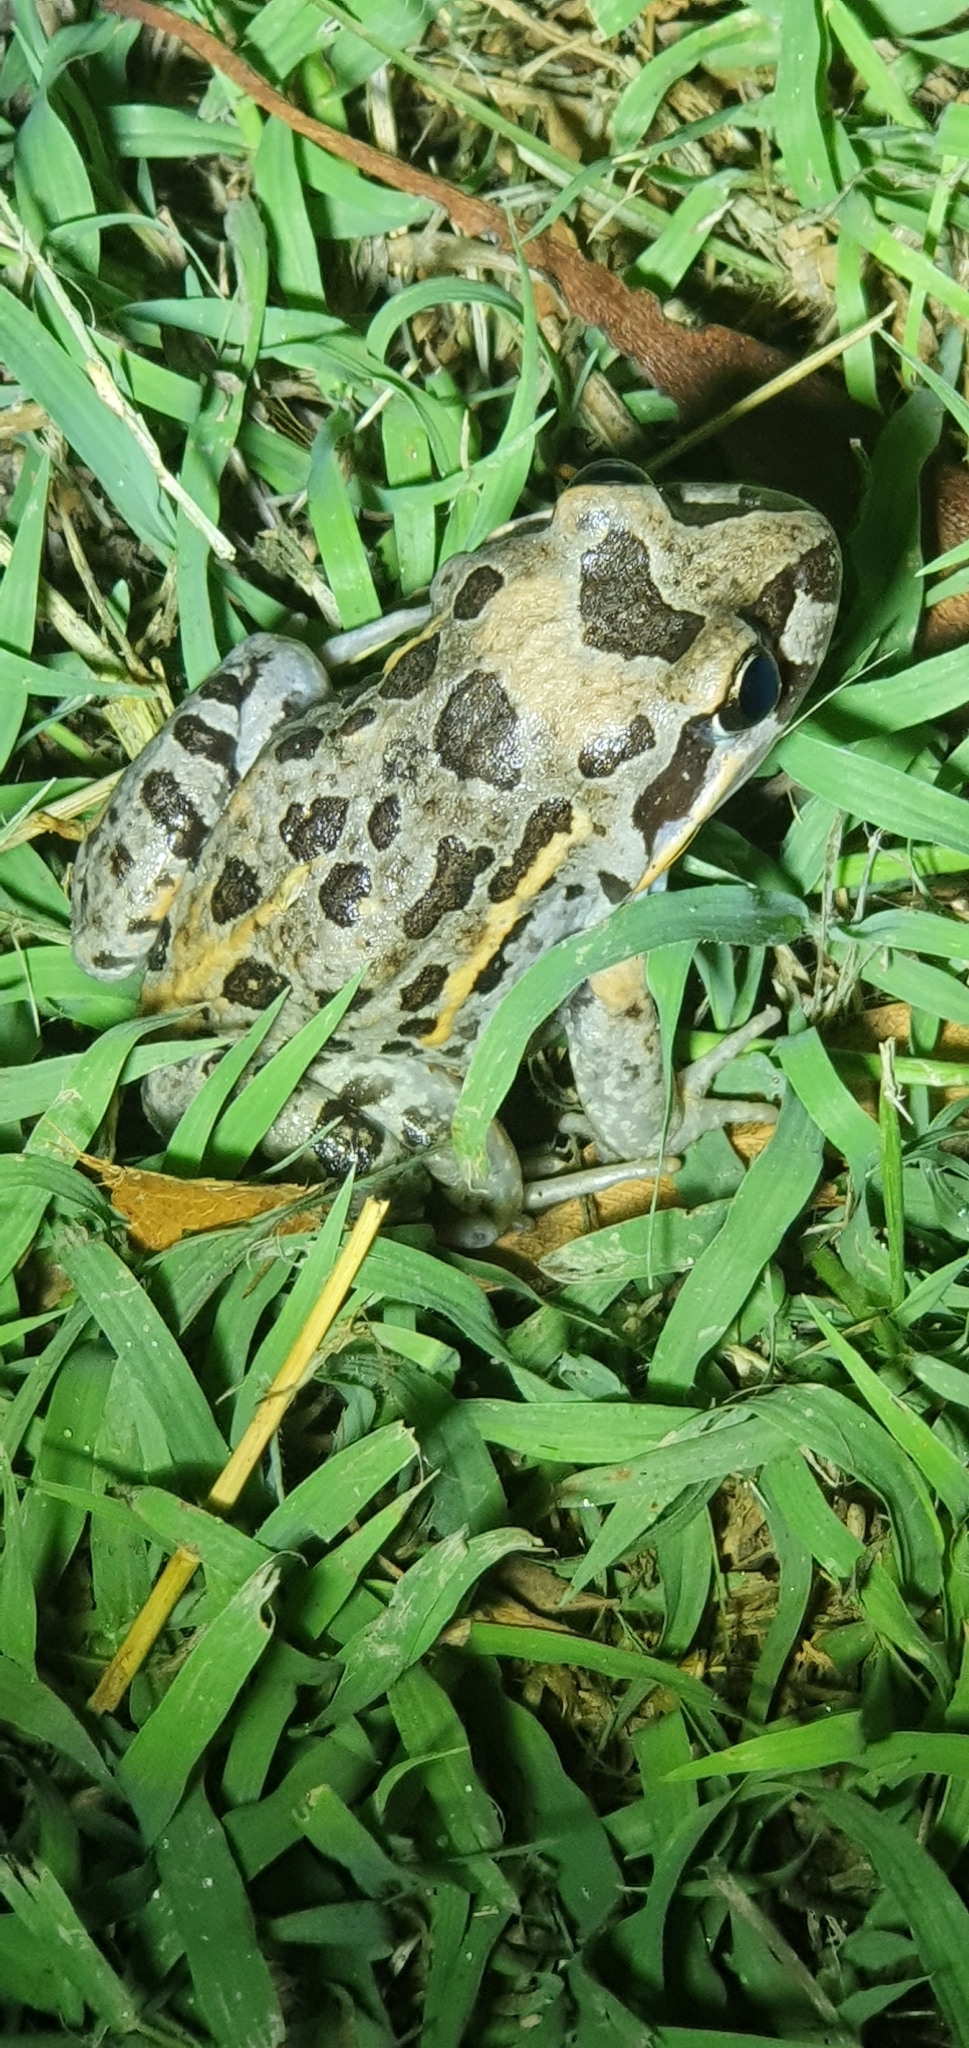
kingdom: Animalia
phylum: Chordata
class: Amphibia
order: Anura
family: Limnodynastidae
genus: Limnodynastes
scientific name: Limnodynastes salmini
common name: Salmon-striped frog
